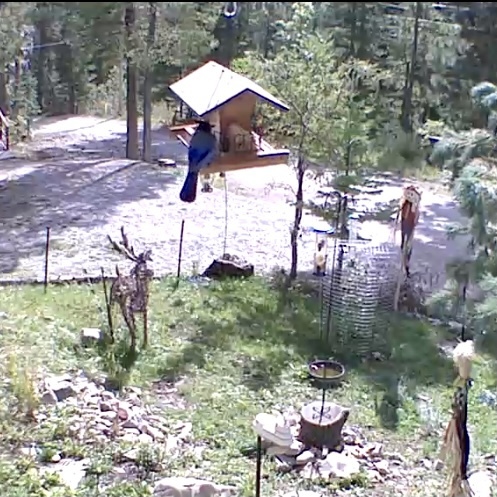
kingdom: Animalia
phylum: Chordata
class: Aves
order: Passeriformes
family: Corvidae
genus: Cyanocitta
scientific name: Cyanocitta stelleri
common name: Steller's jay
